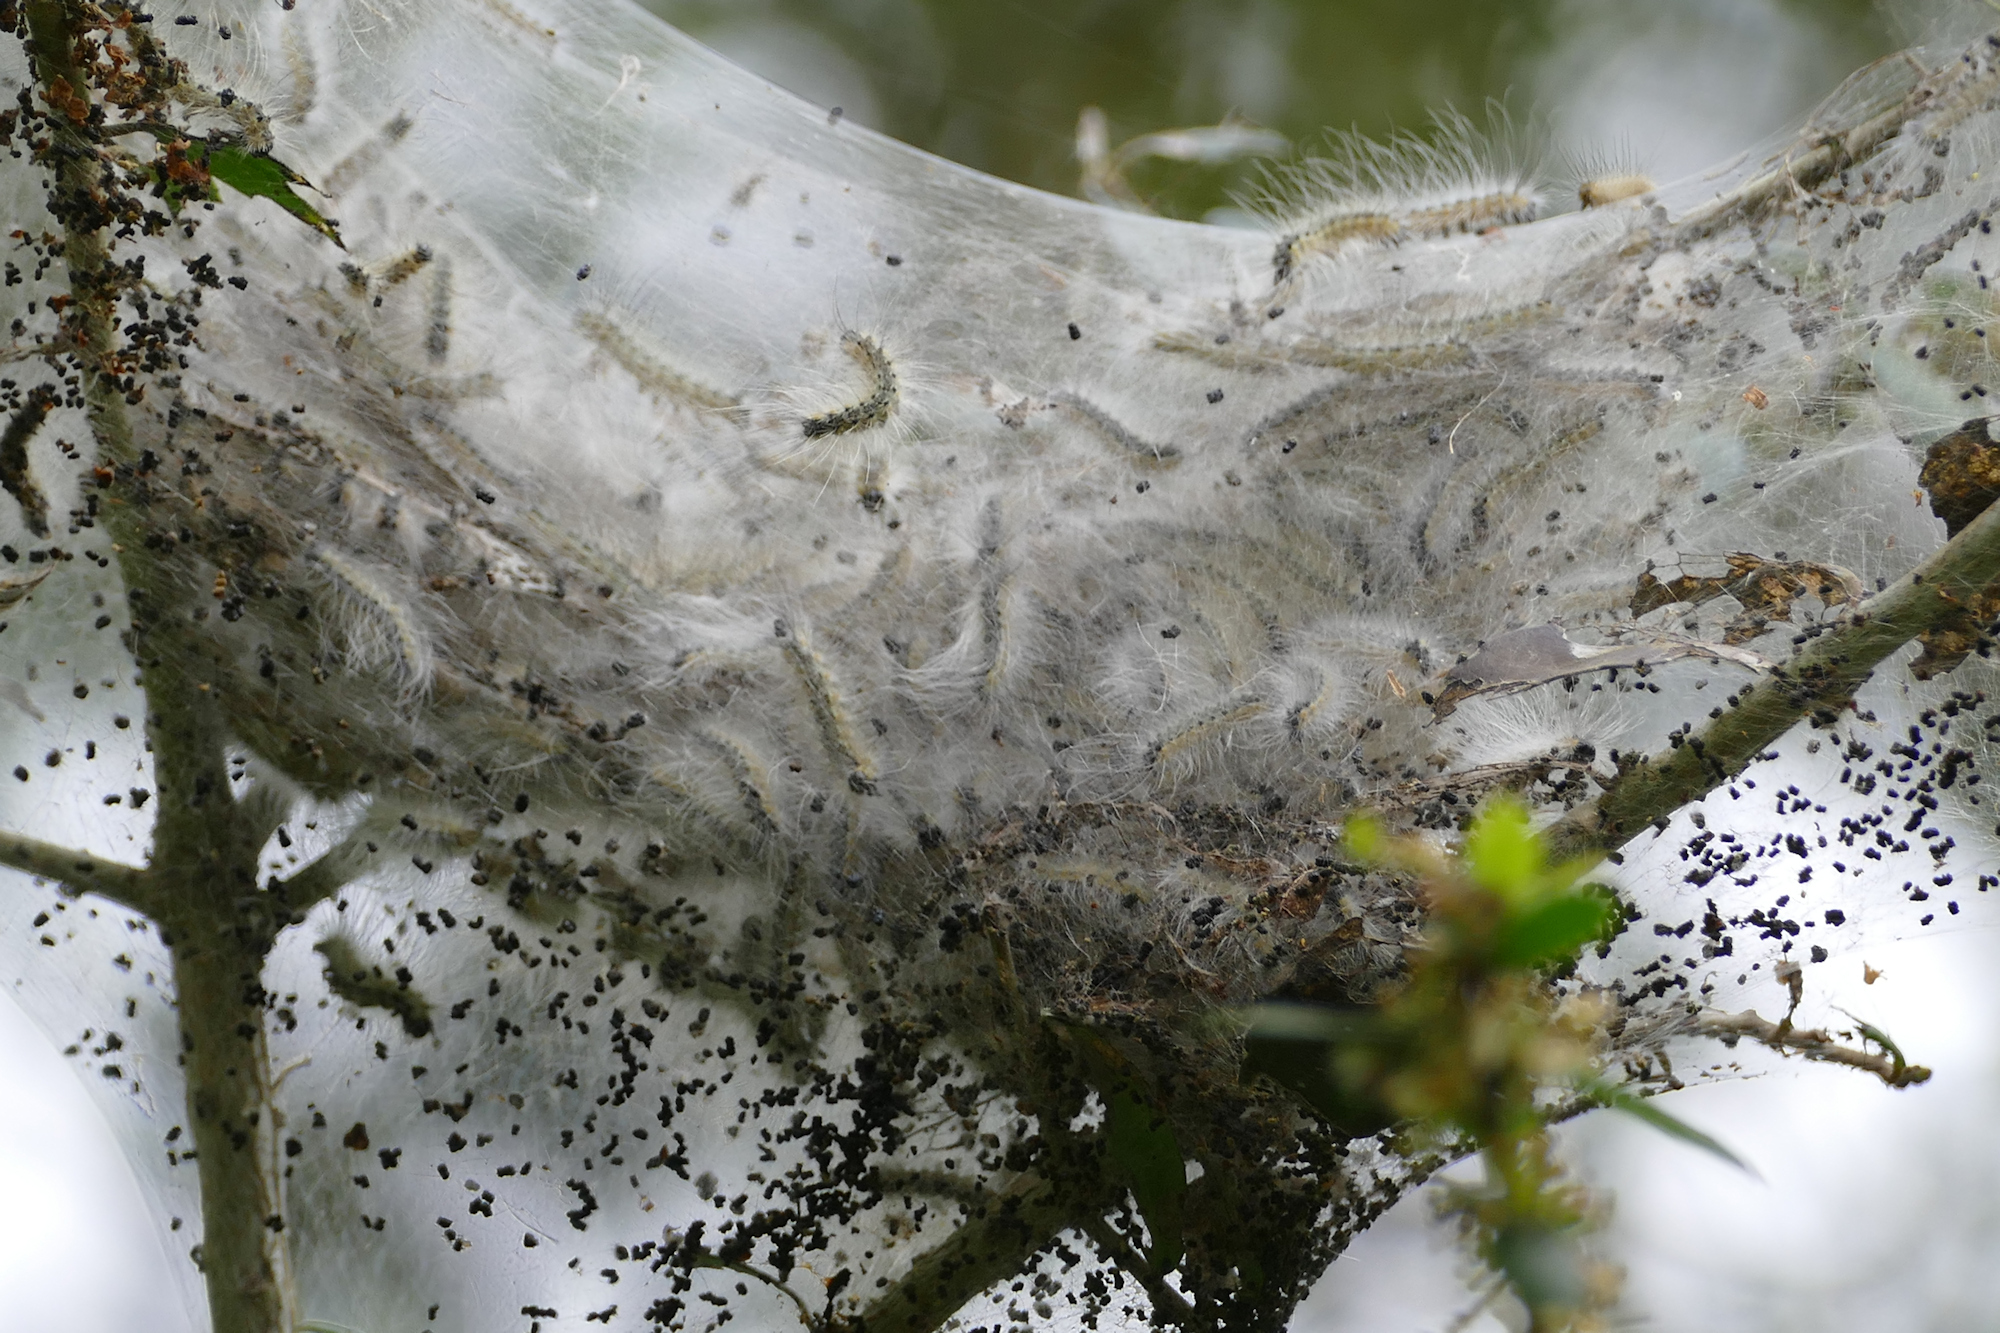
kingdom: Animalia
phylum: Arthropoda
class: Insecta
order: Lepidoptera
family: Erebidae
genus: Hyphantria
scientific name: Hyphantria cunea
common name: American white moth
